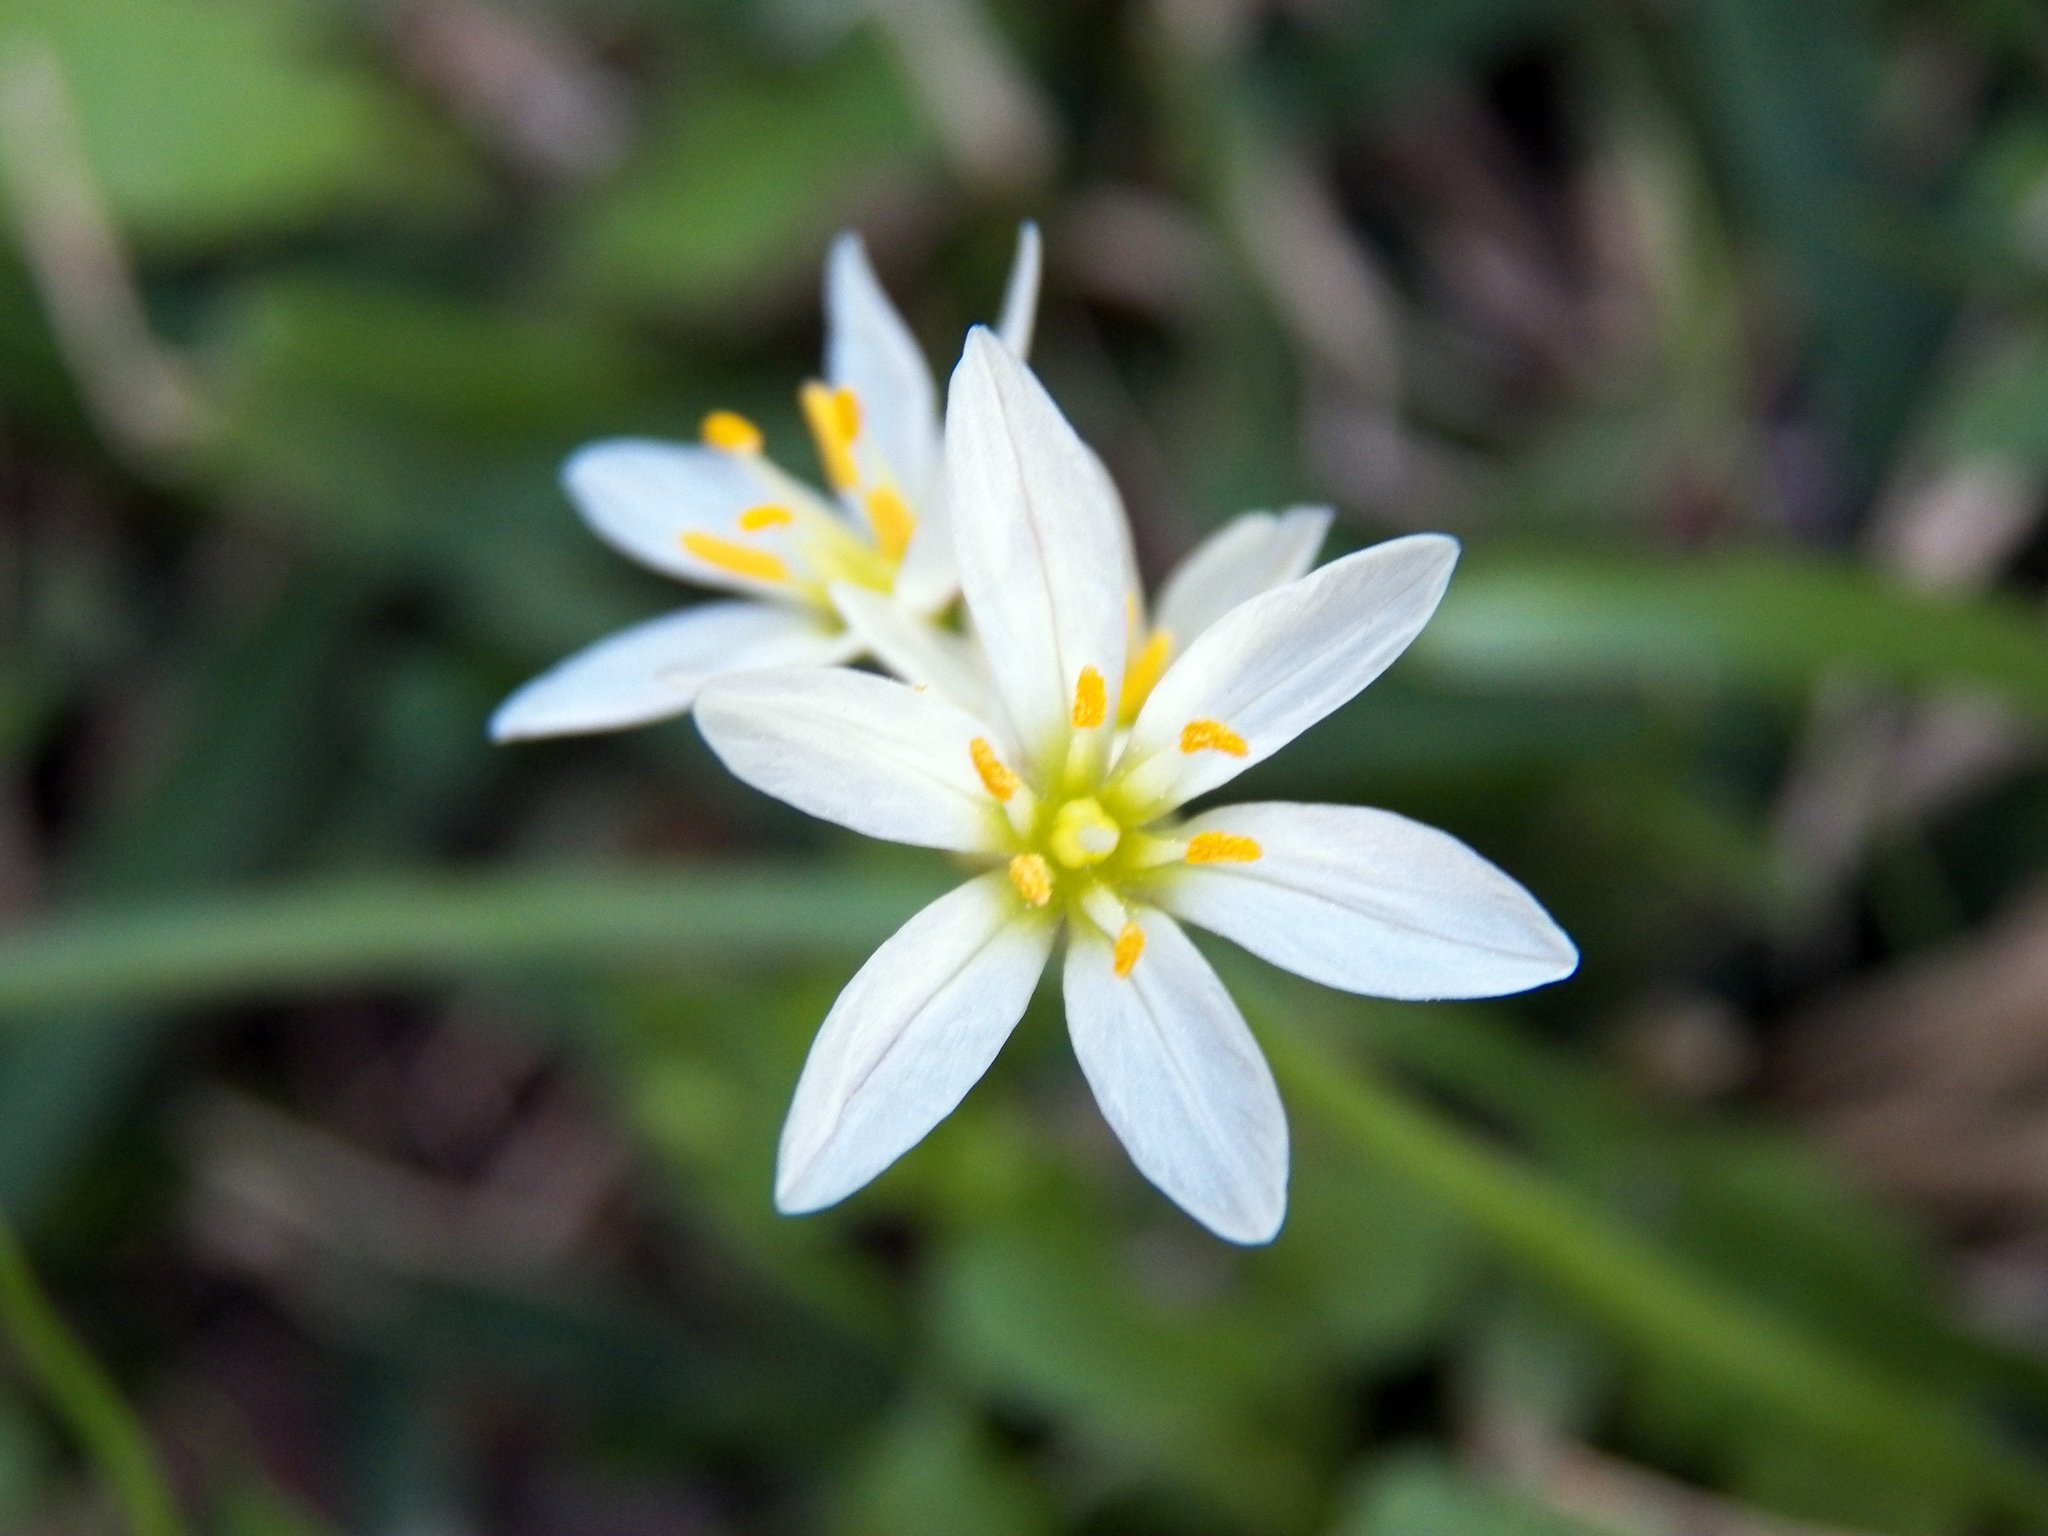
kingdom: Plantae
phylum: Tracheophyta
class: Liliopsida
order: Asparagales
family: Amaryllidaceae
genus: Nothoscordum
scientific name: Nothoscordum bivalve
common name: Crow-poison
